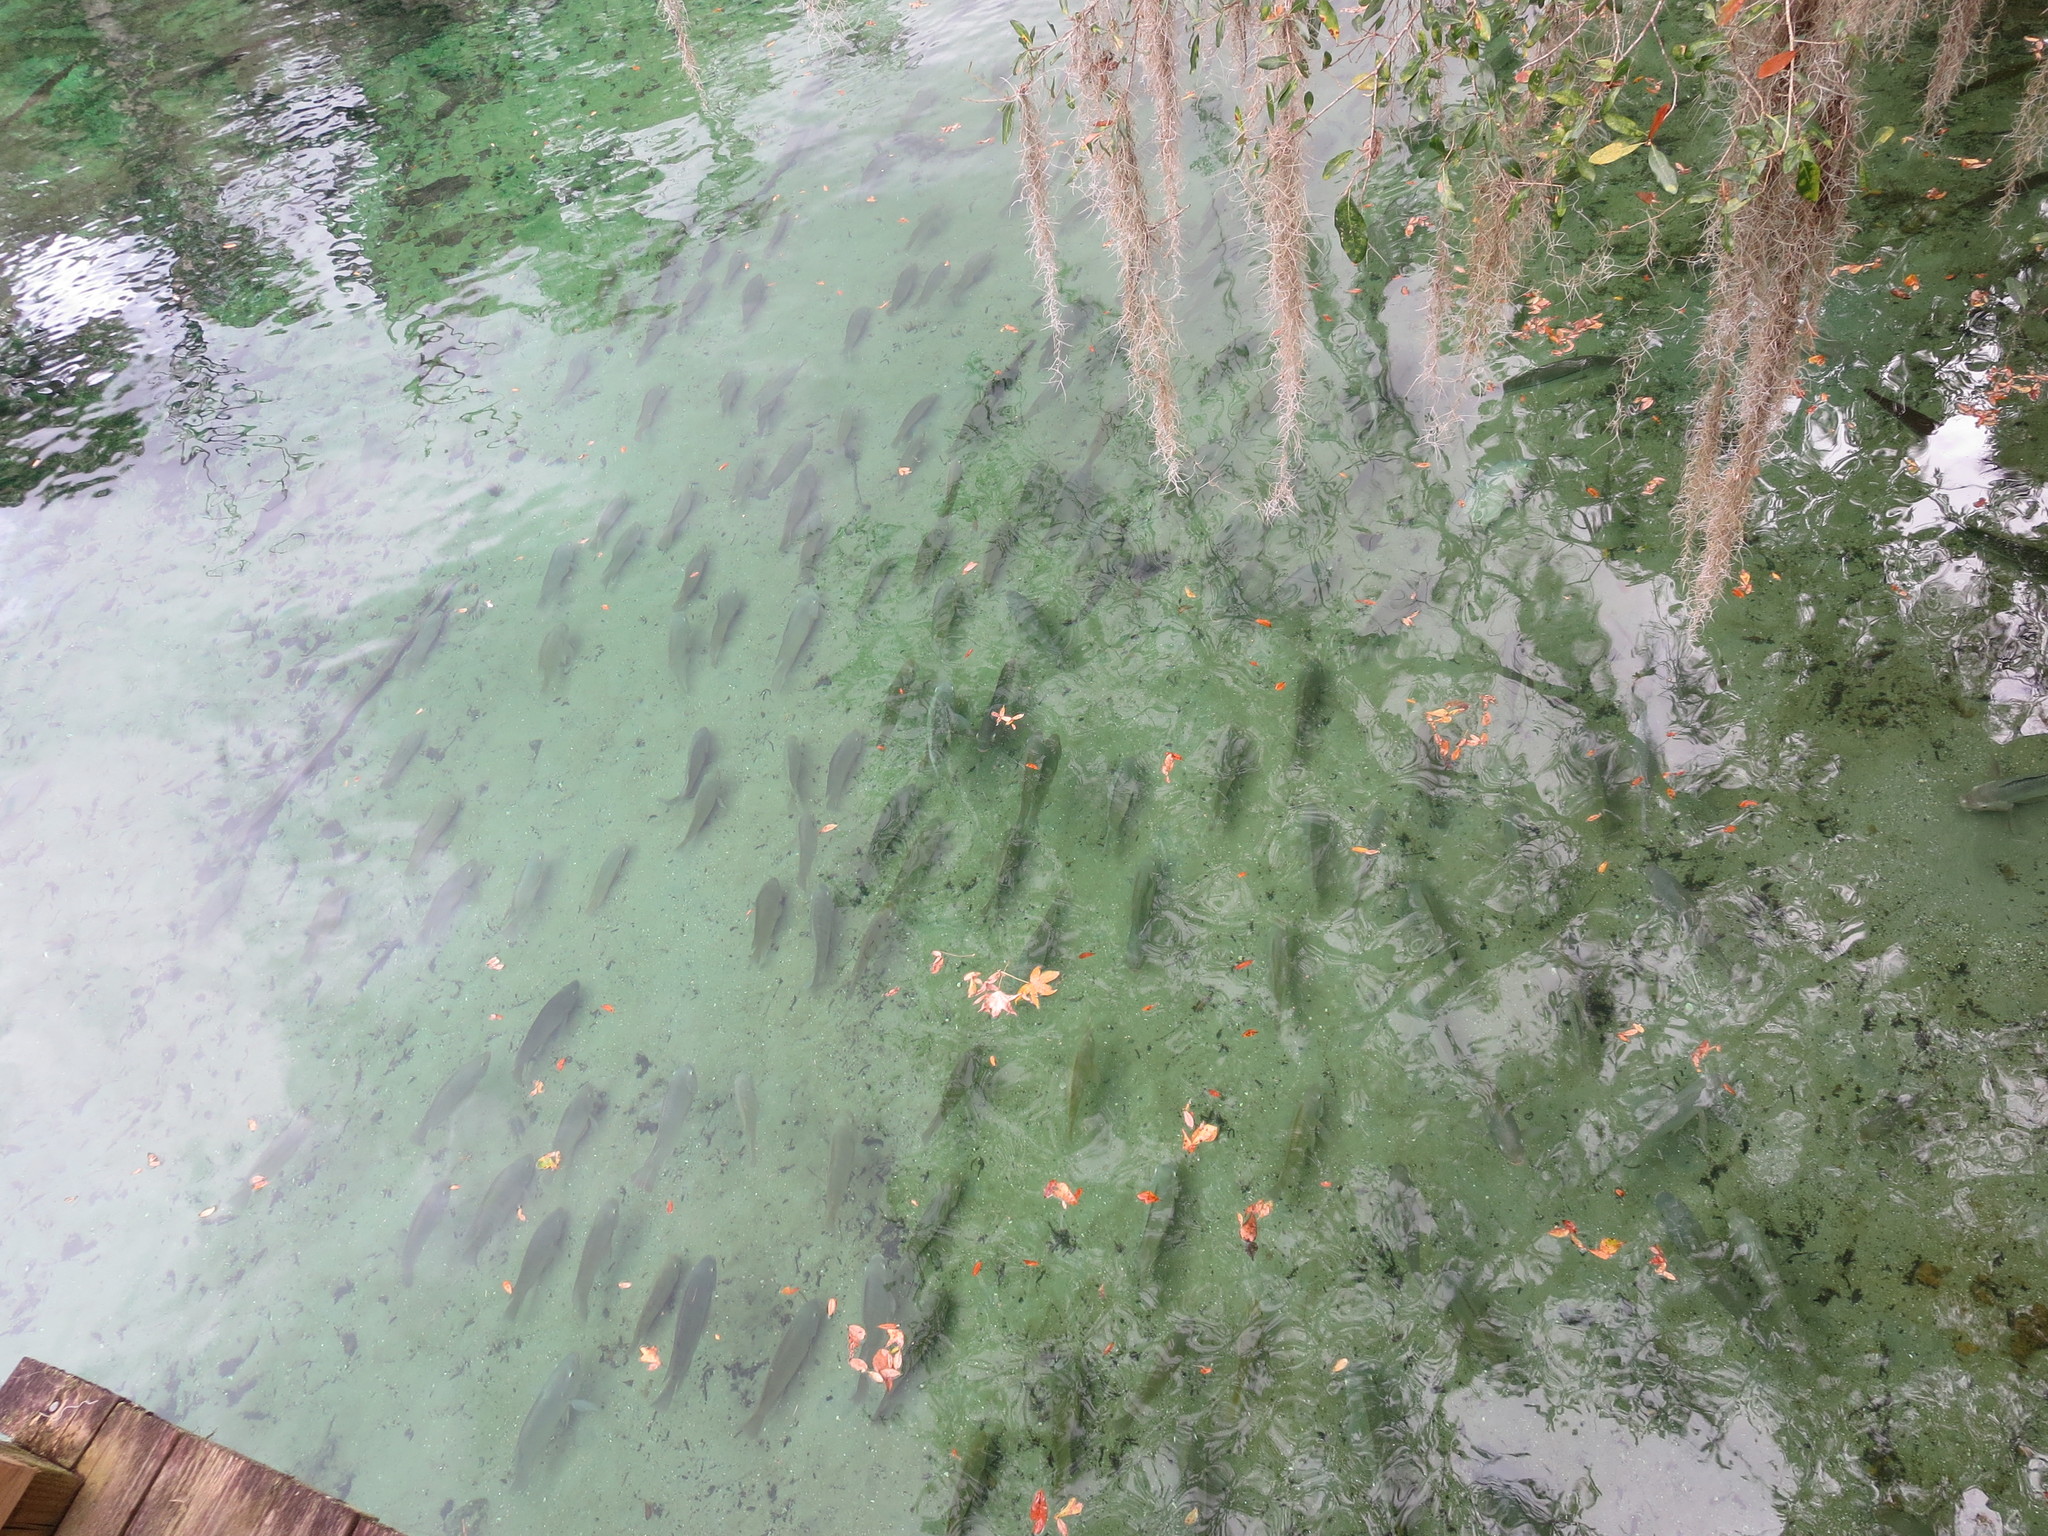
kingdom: Animalia
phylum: Chordata
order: Perciformes
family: Cichlidae
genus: Oreochromis
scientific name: Oreochromis aureus
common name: Blue tilapia
